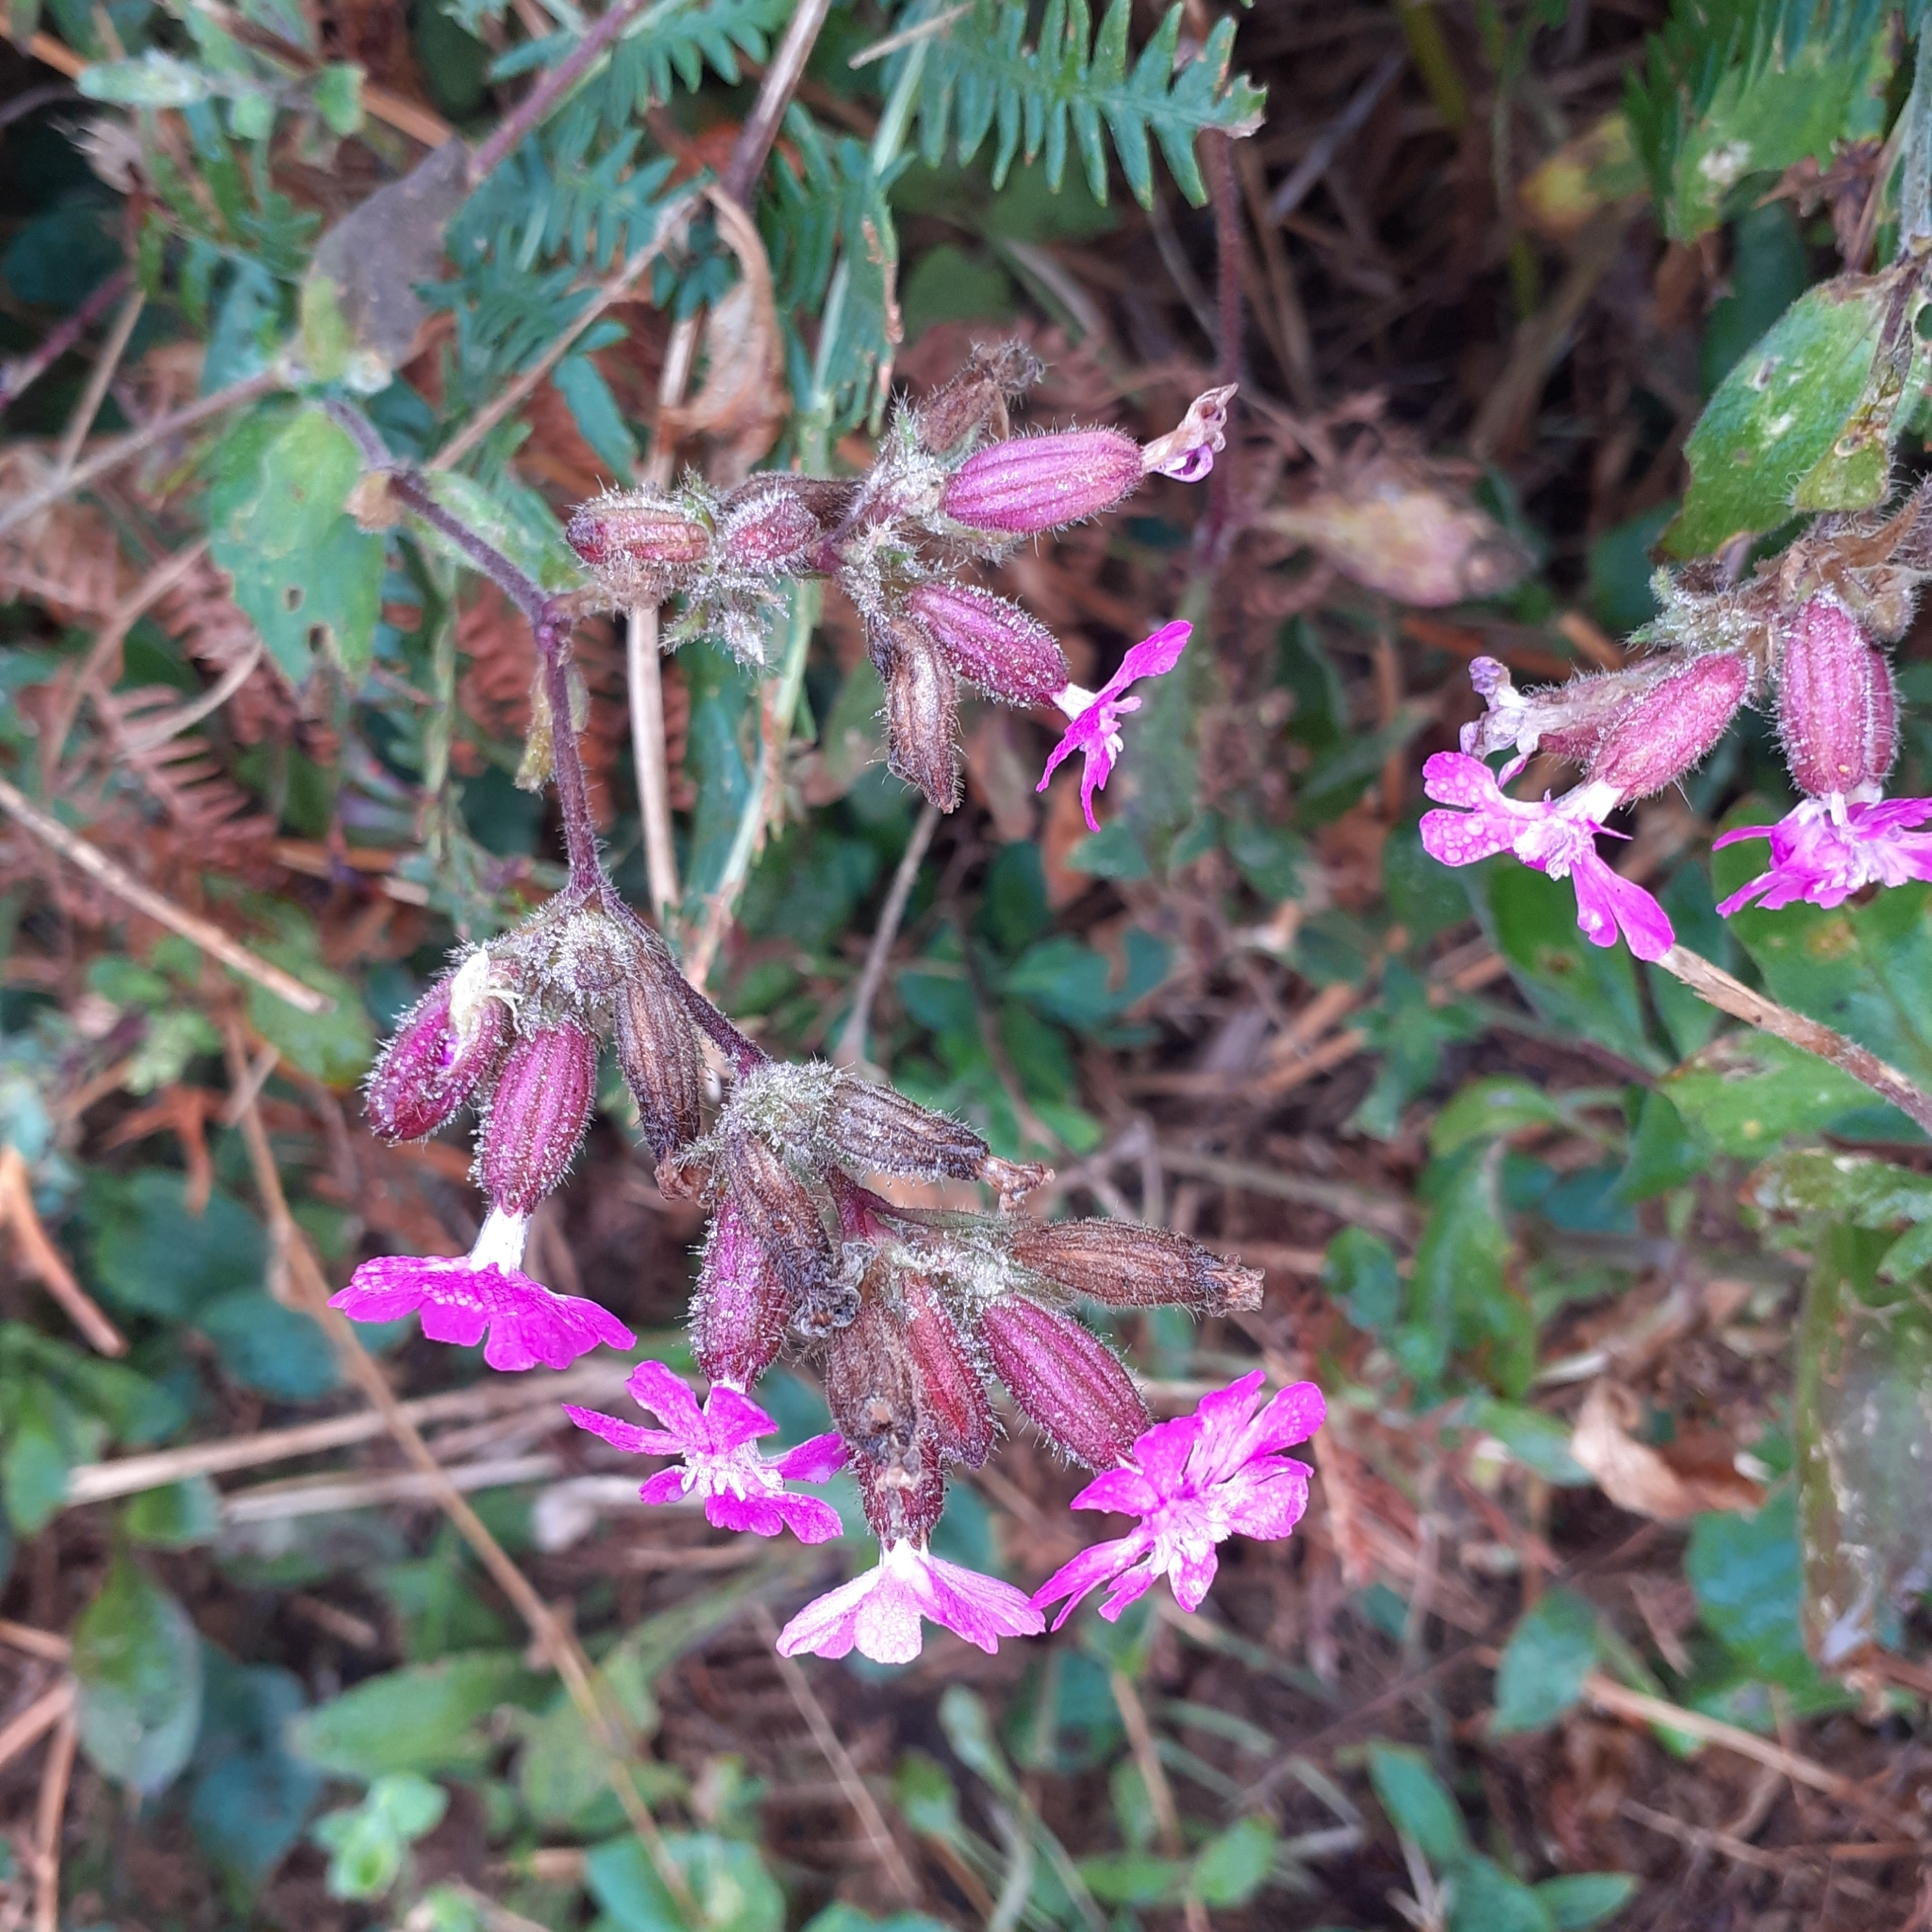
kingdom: Plantae
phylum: Tracheophyta
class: Magnoliopsida
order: Caryophyllales
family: Caryophyllaceae
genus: Silene
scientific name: Silene dioica
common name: Red campion
